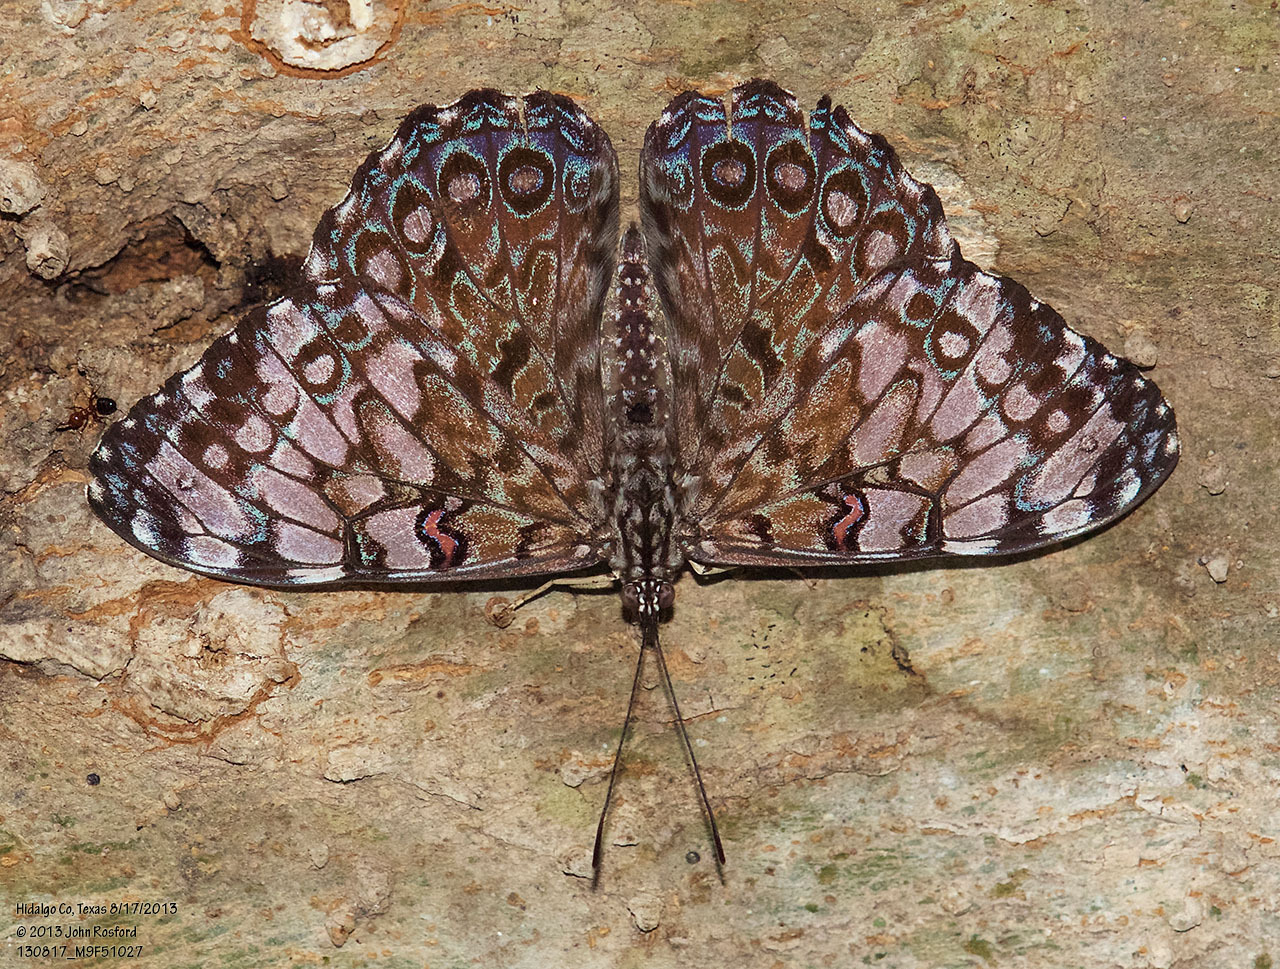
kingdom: Animalia
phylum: Arthropoda
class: Insecta
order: Lepidoptera
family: Nymphalidae
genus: Hamadryas
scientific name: Hamadryas guatemalena
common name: Guatemalan cracker
